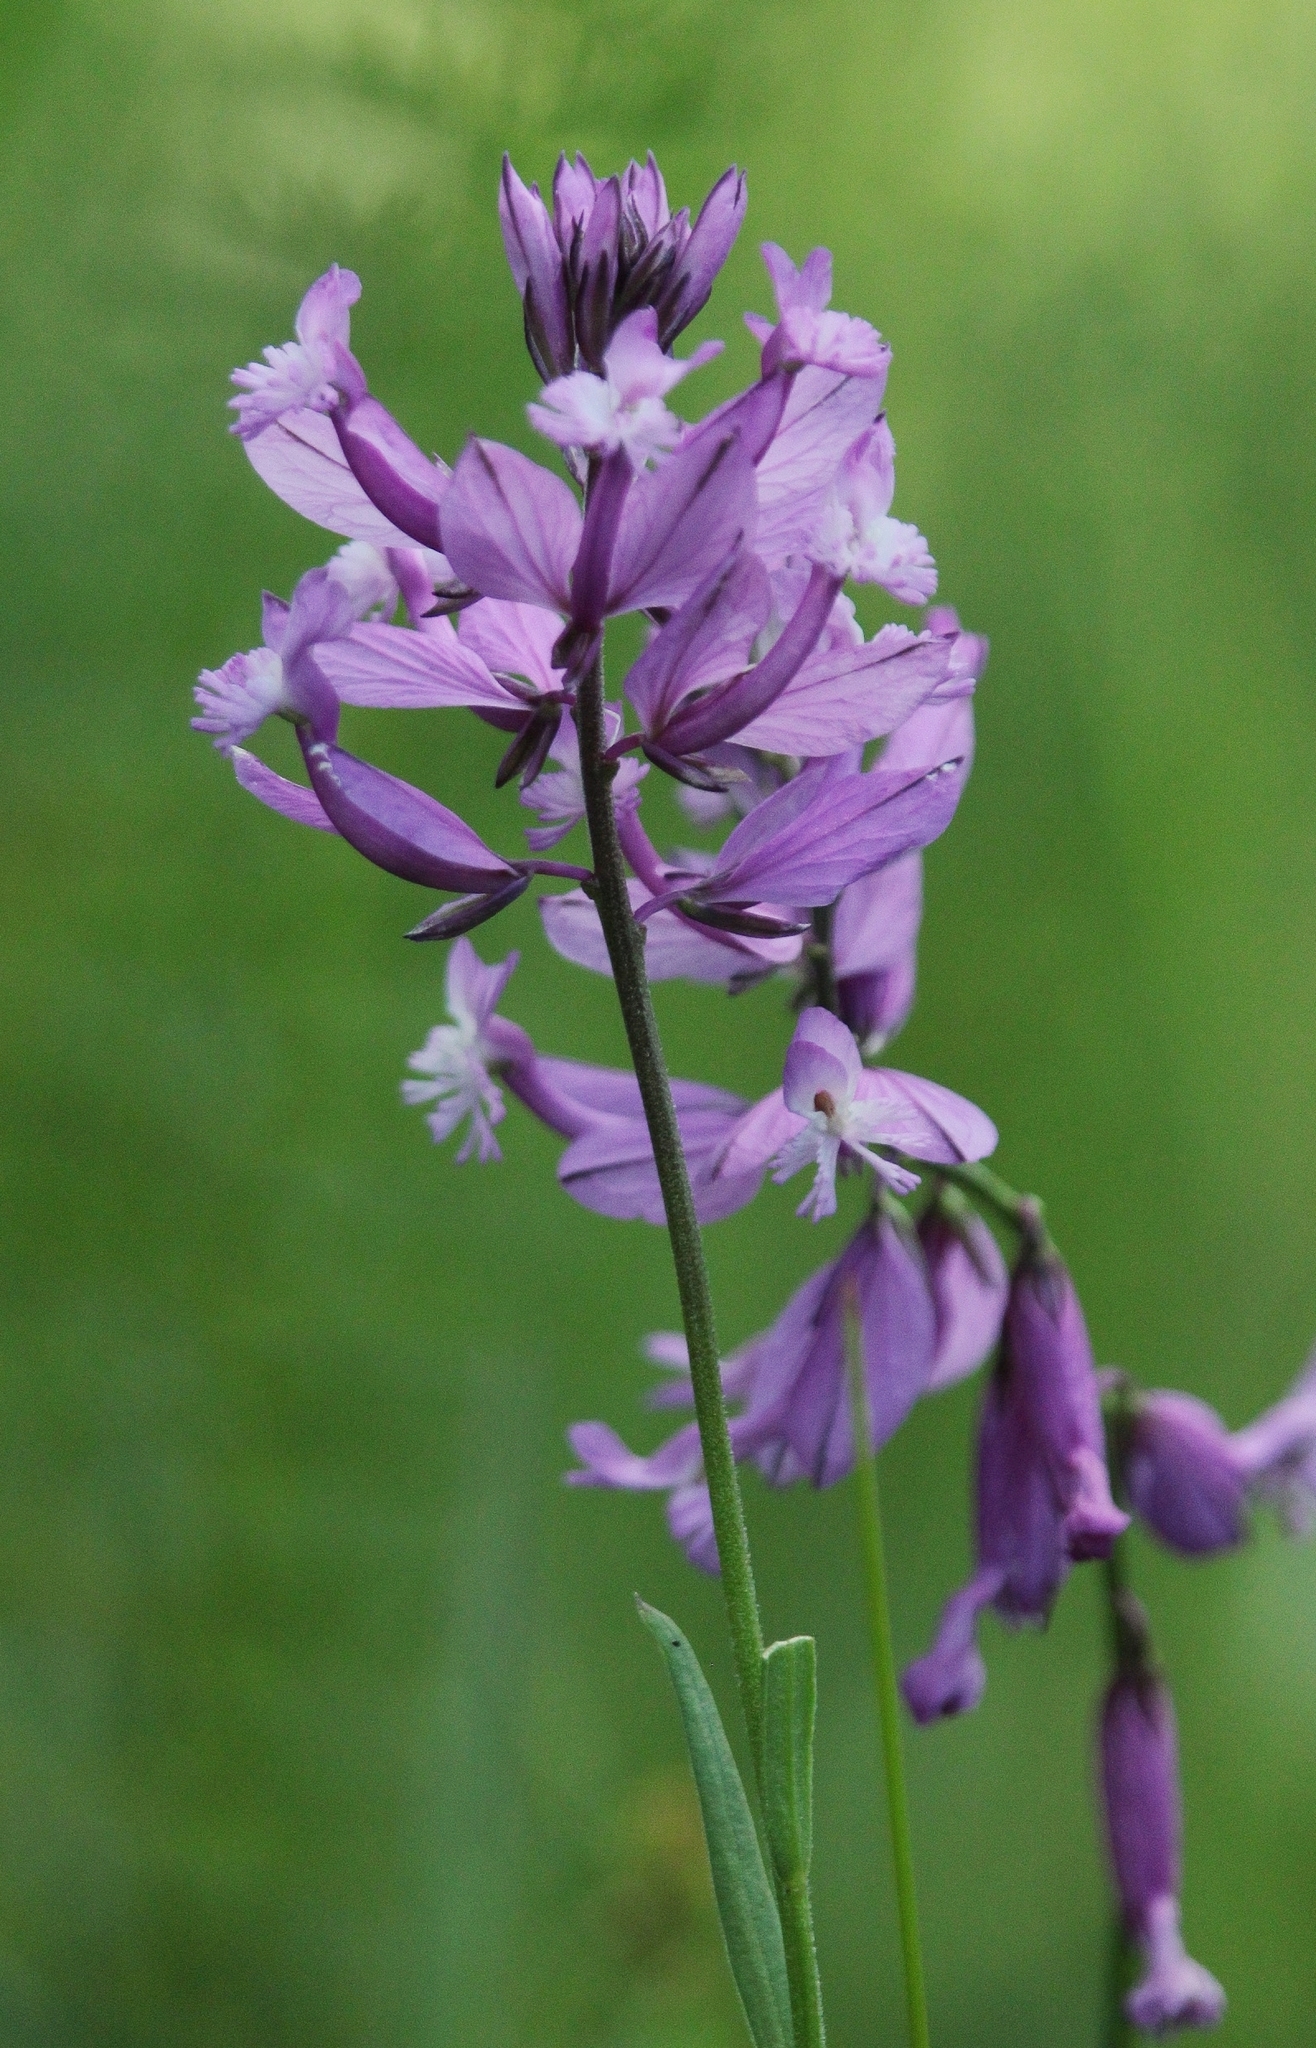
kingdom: Plantae
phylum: Tracheophyta
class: Magnoliopsida
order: Fabales
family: Polygalaceae
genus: Polygala
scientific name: Polygala major
